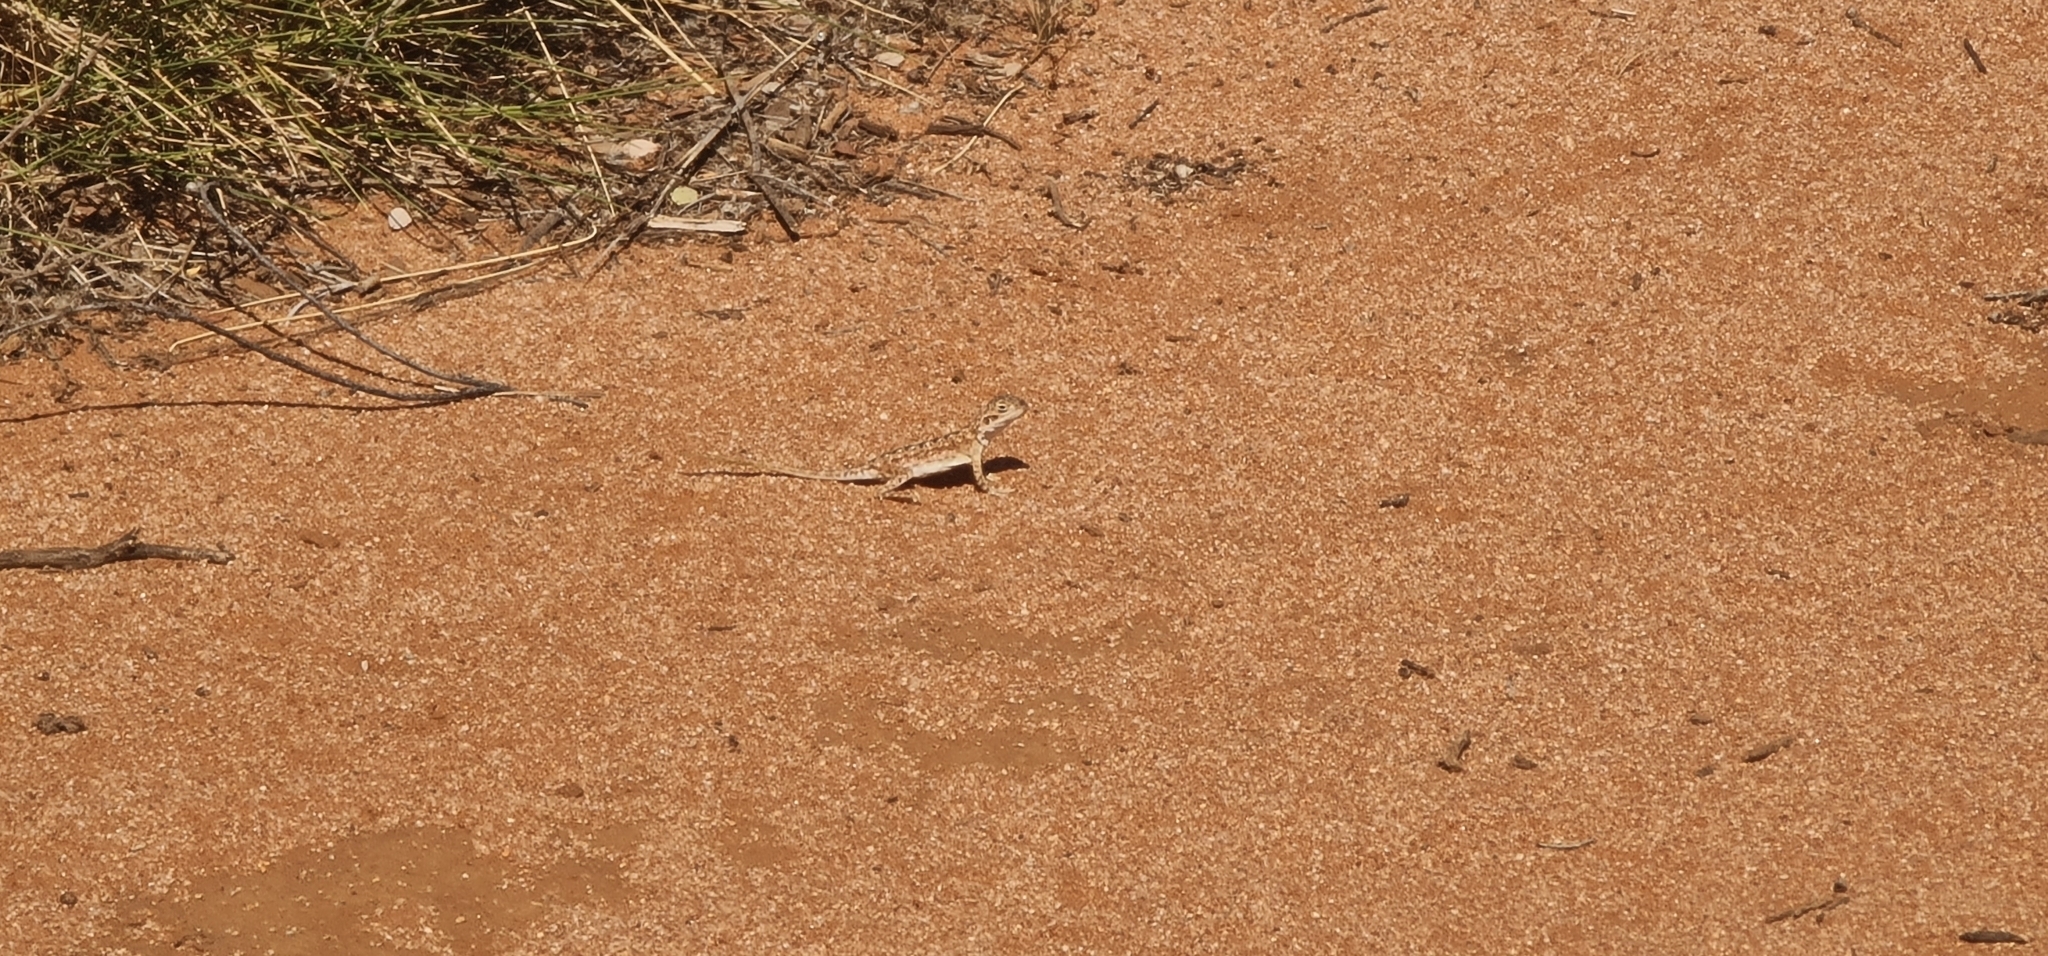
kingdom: Animalia
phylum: Chordata
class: Squamata
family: Agamidae
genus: Ctenophorus
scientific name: Ctenophorus pictus
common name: Painted dragon
